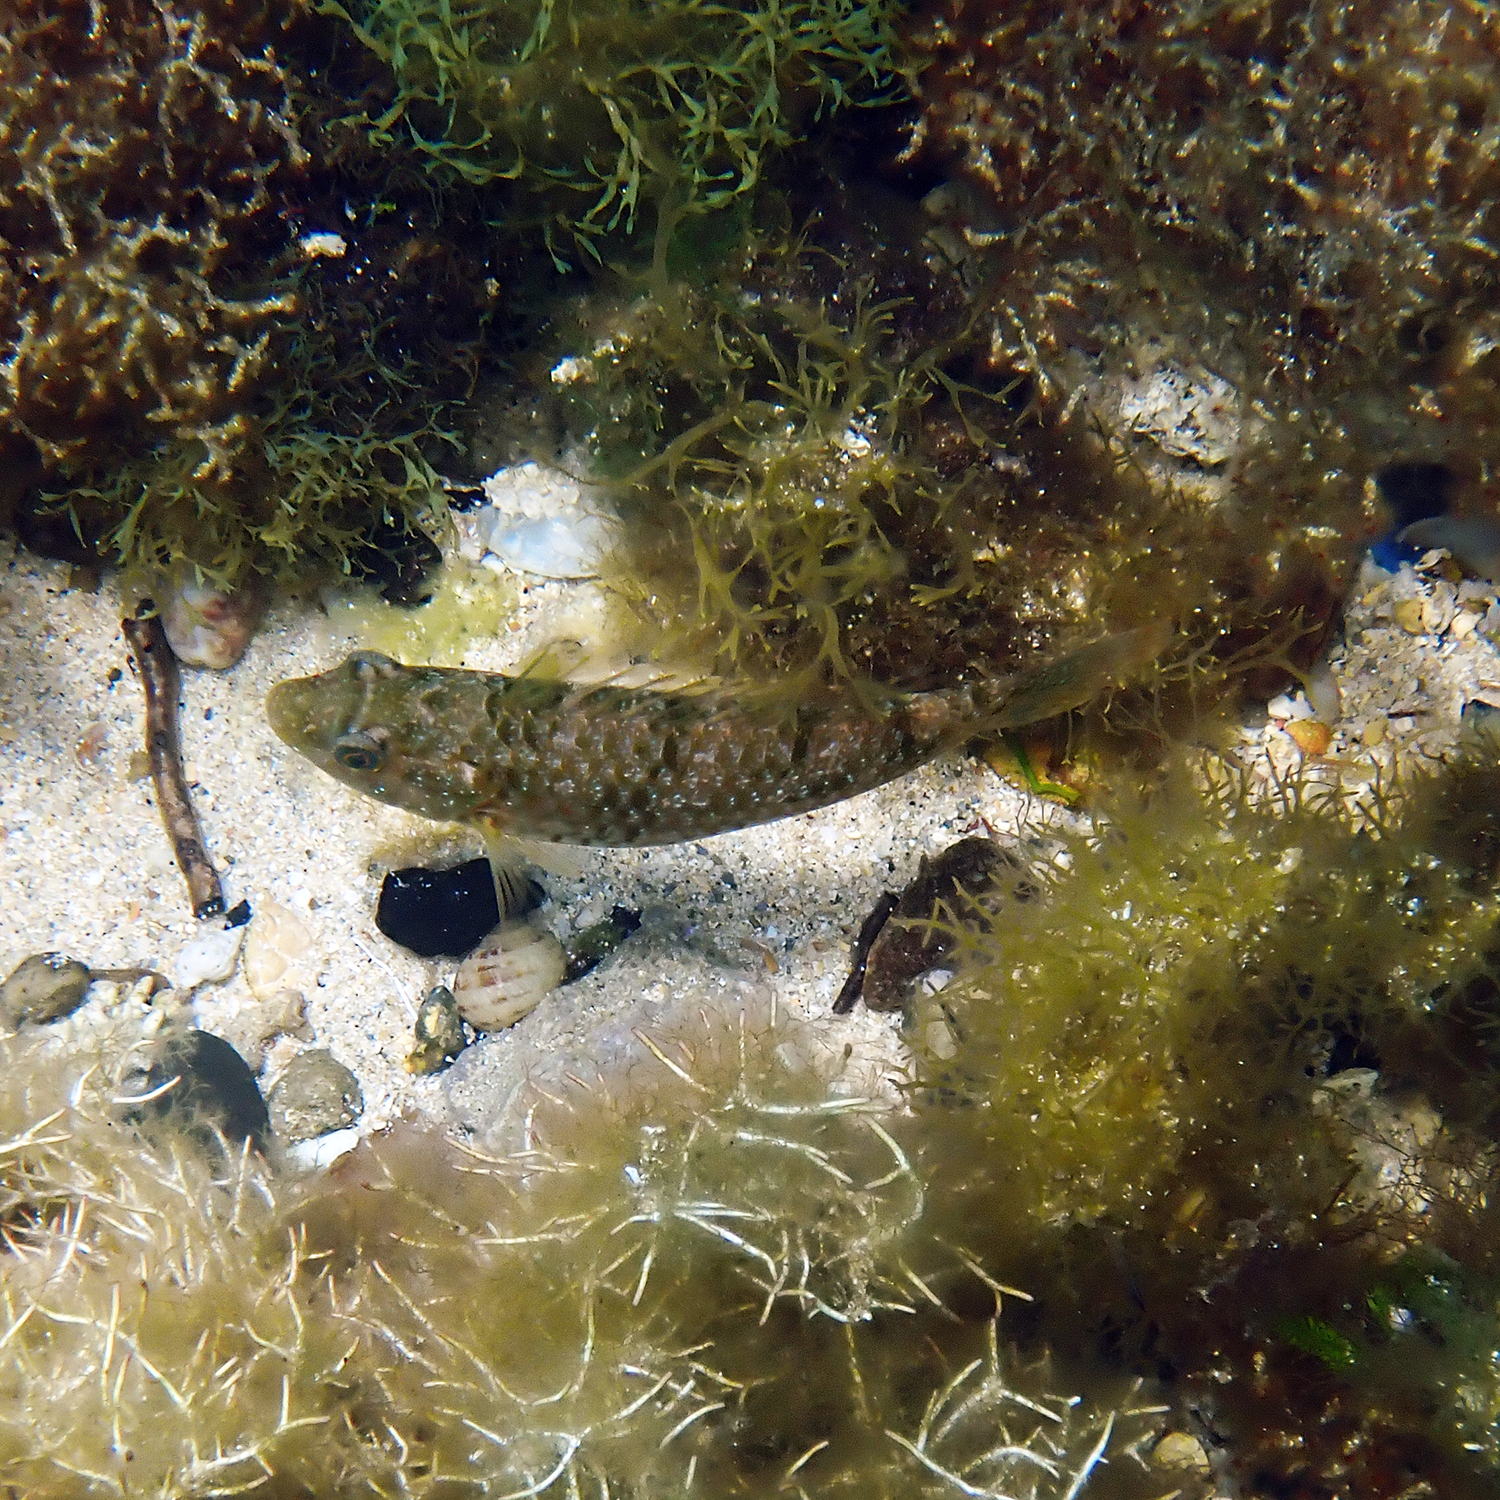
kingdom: Animalia
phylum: Chordata
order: Perciformes
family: Scaridae
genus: Leptoscarus
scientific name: Leptoscarus vaigiensis
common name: Marbled parrotfish
